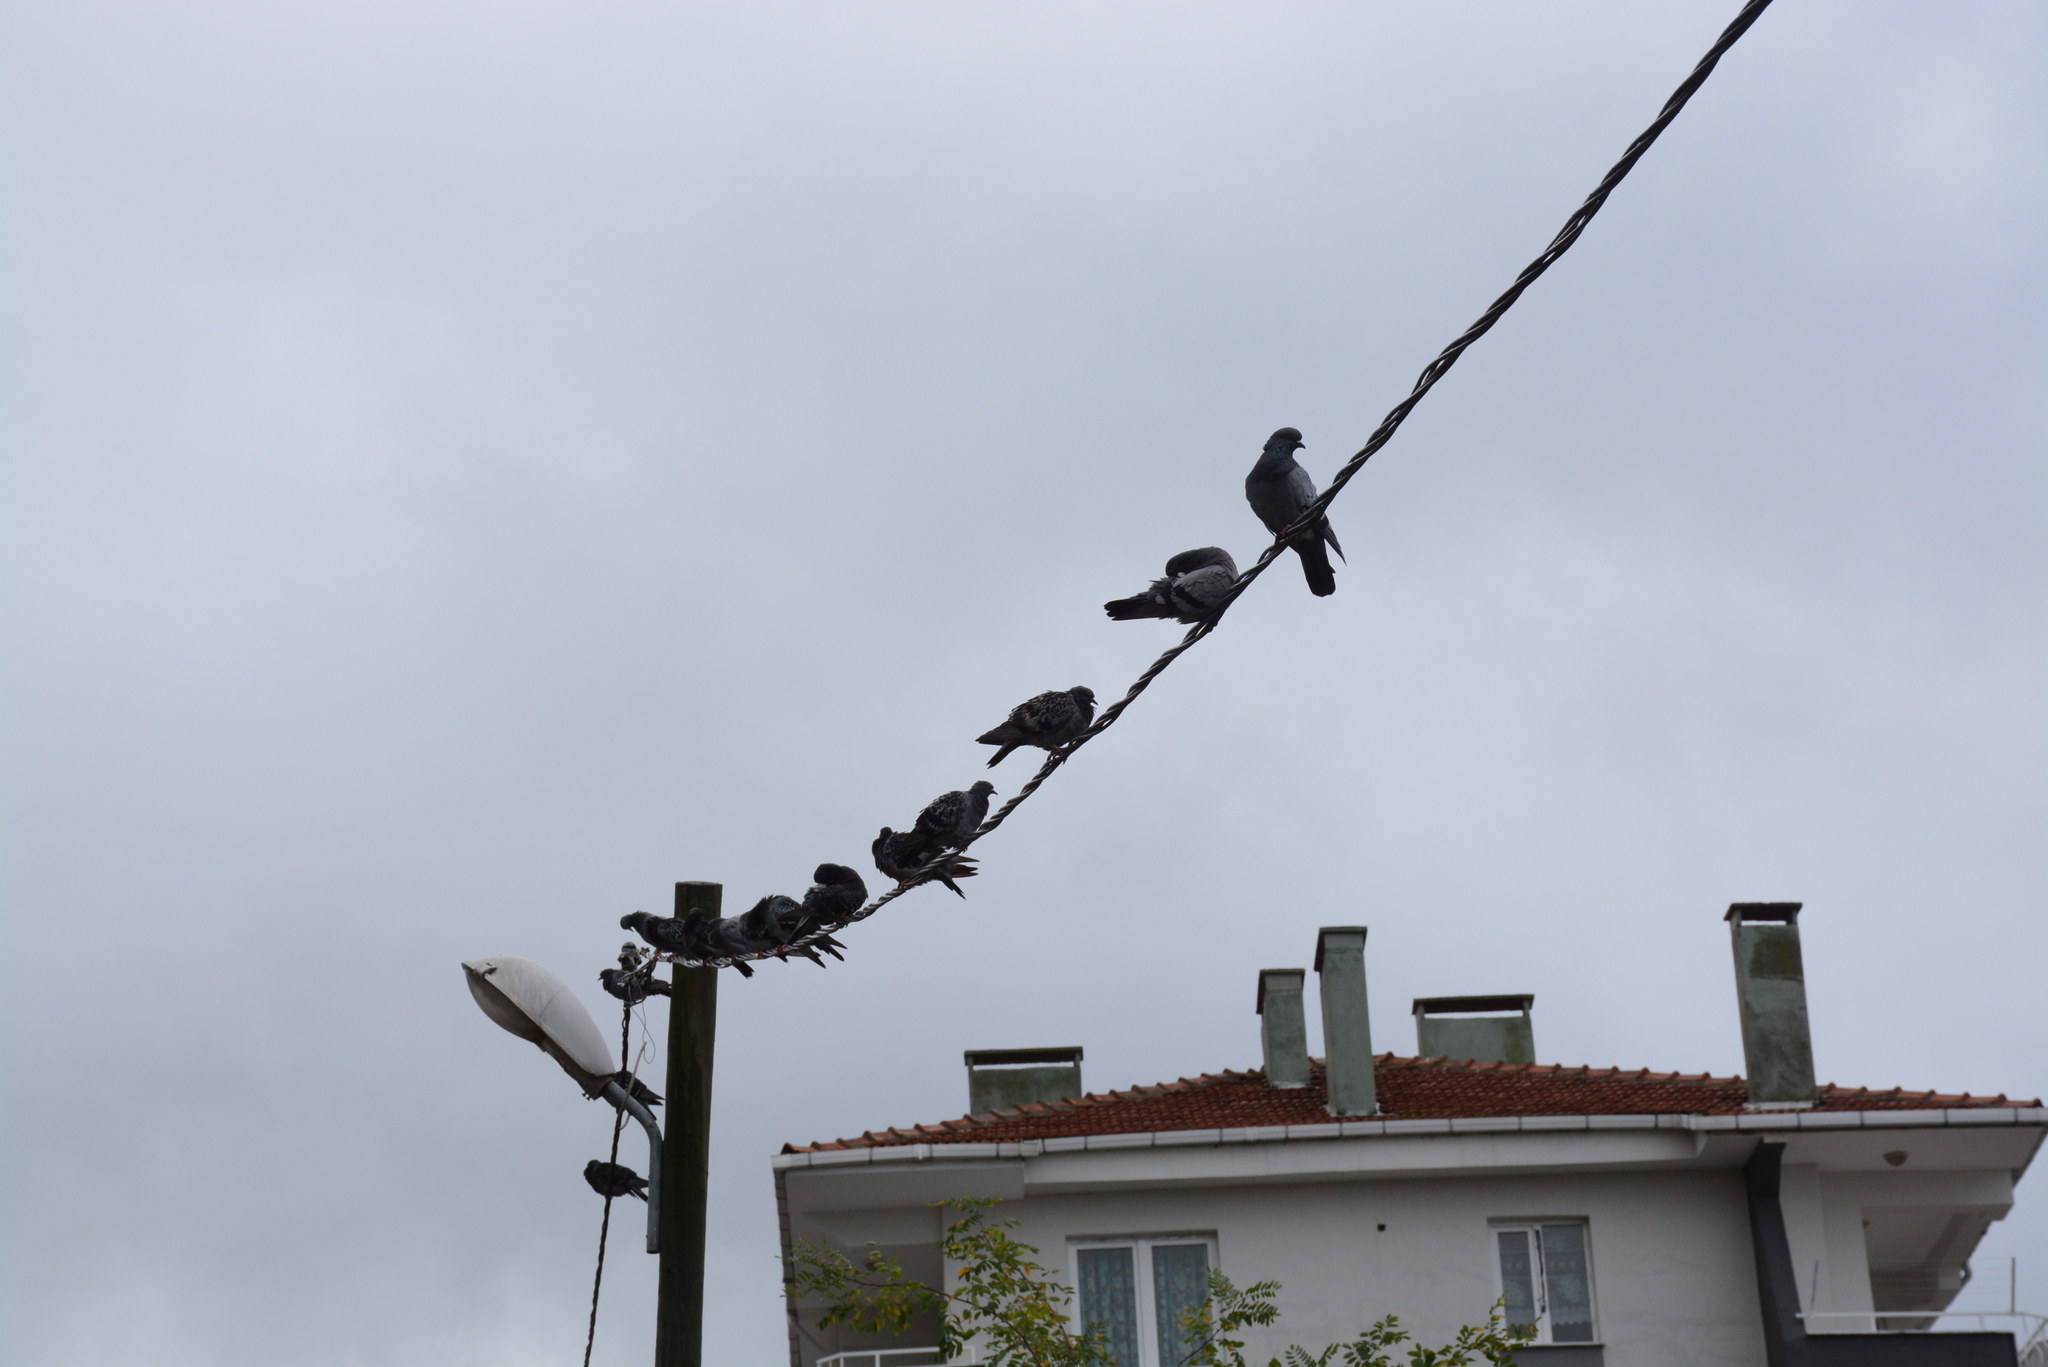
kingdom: Animalia
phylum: Chordata
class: Aves
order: Columbiformes
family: Columbidae
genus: Columba
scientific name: Columba livia
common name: Rock pigeon
